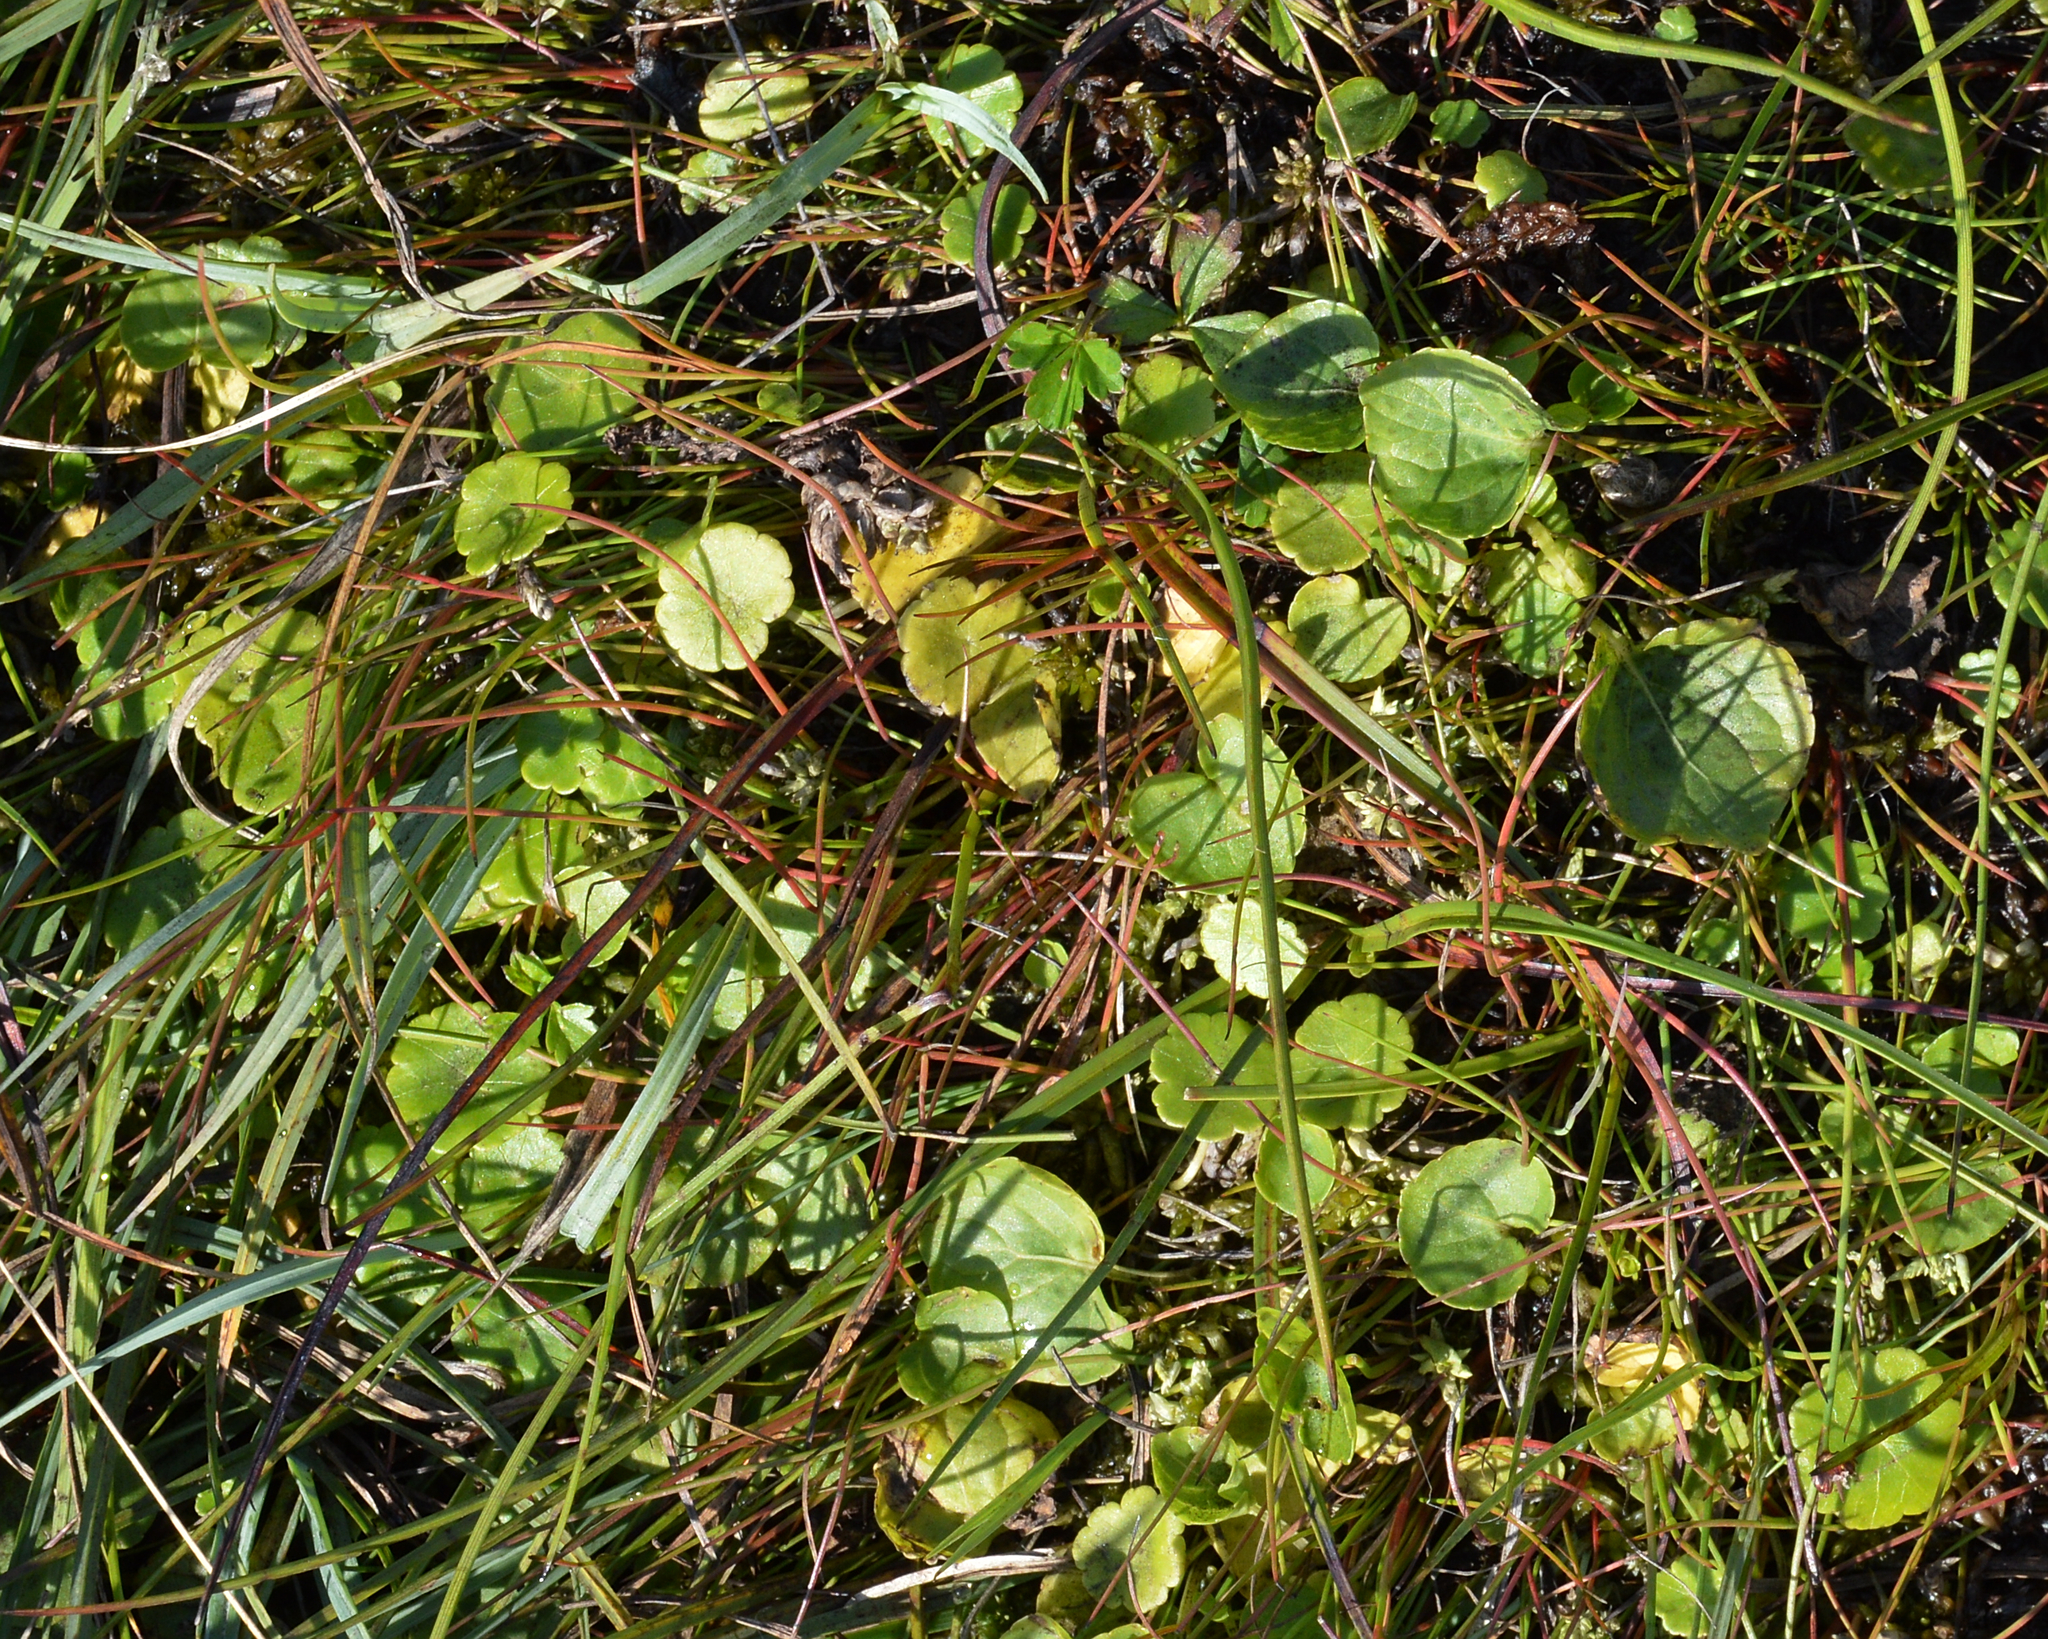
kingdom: Plantae
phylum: Tracheophyta
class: Magnoliopsida
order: Apiales
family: Araliaceae
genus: Hydrocotyle
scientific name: Hydrocotyle vulgaris
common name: Marsh pennywort
